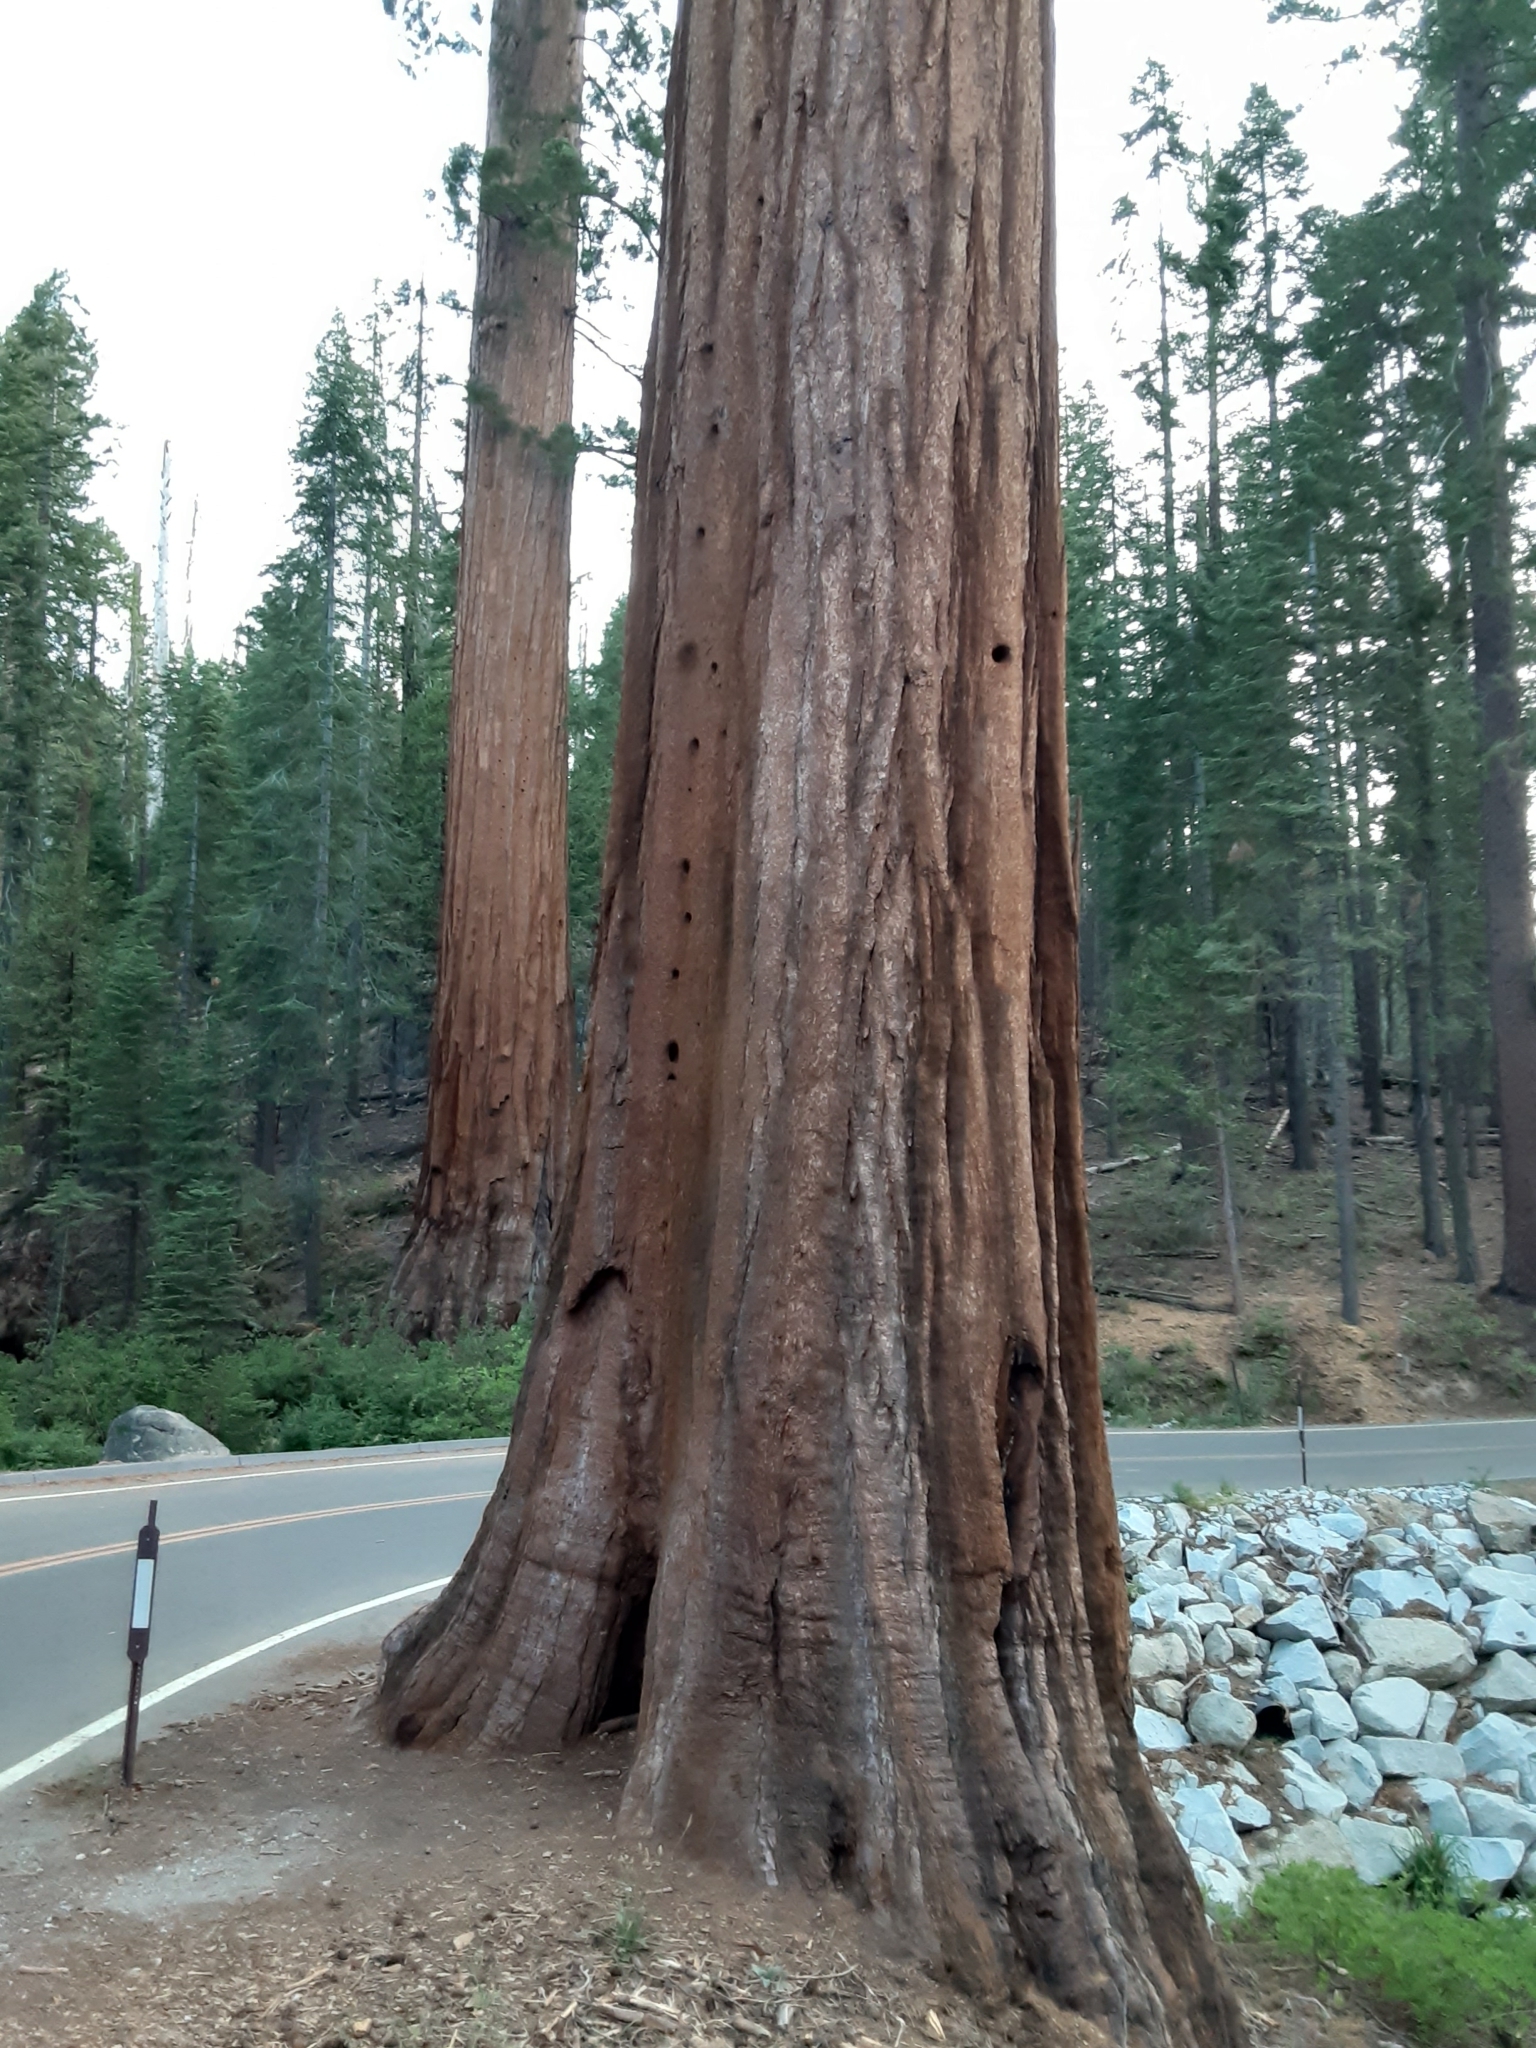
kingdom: Plantae
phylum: Tracheophyta
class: Pinopsida
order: Pinales
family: Cupressaceae
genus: Sequoiadendron
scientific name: Sequoiadendron giganteum
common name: Wellingtonia
